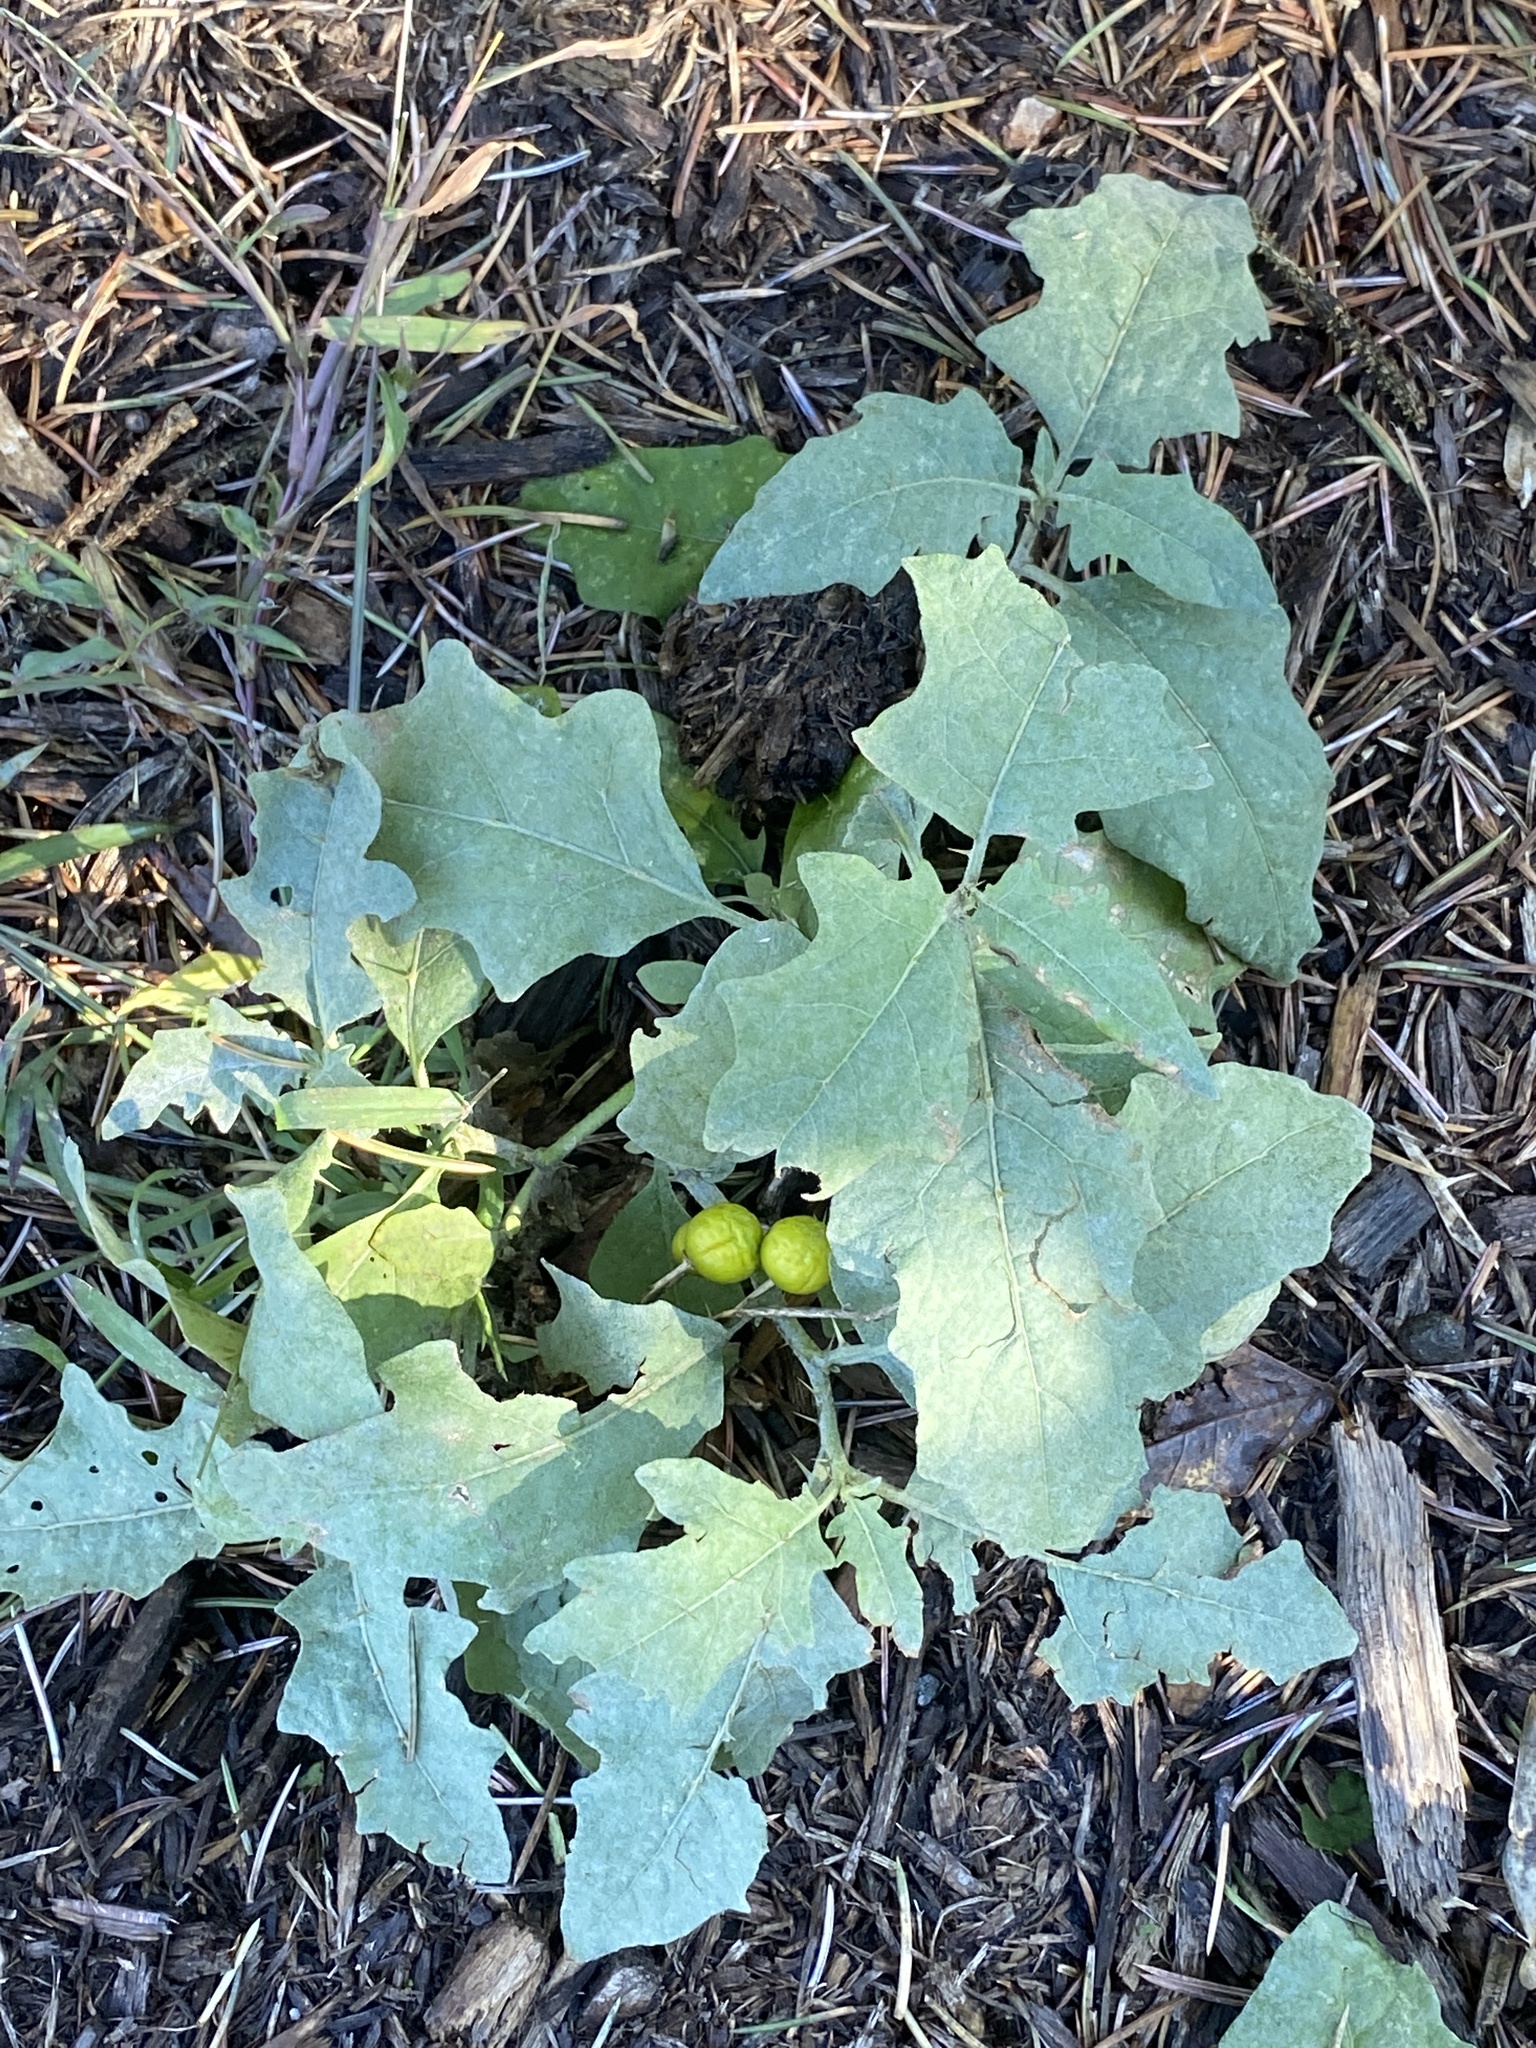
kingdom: Plantae
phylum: Tracheophyta
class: Magnoliopsida
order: Solanales
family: Solanaceae
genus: Solanum
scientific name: Solanum carolinense
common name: Horse-nettle
